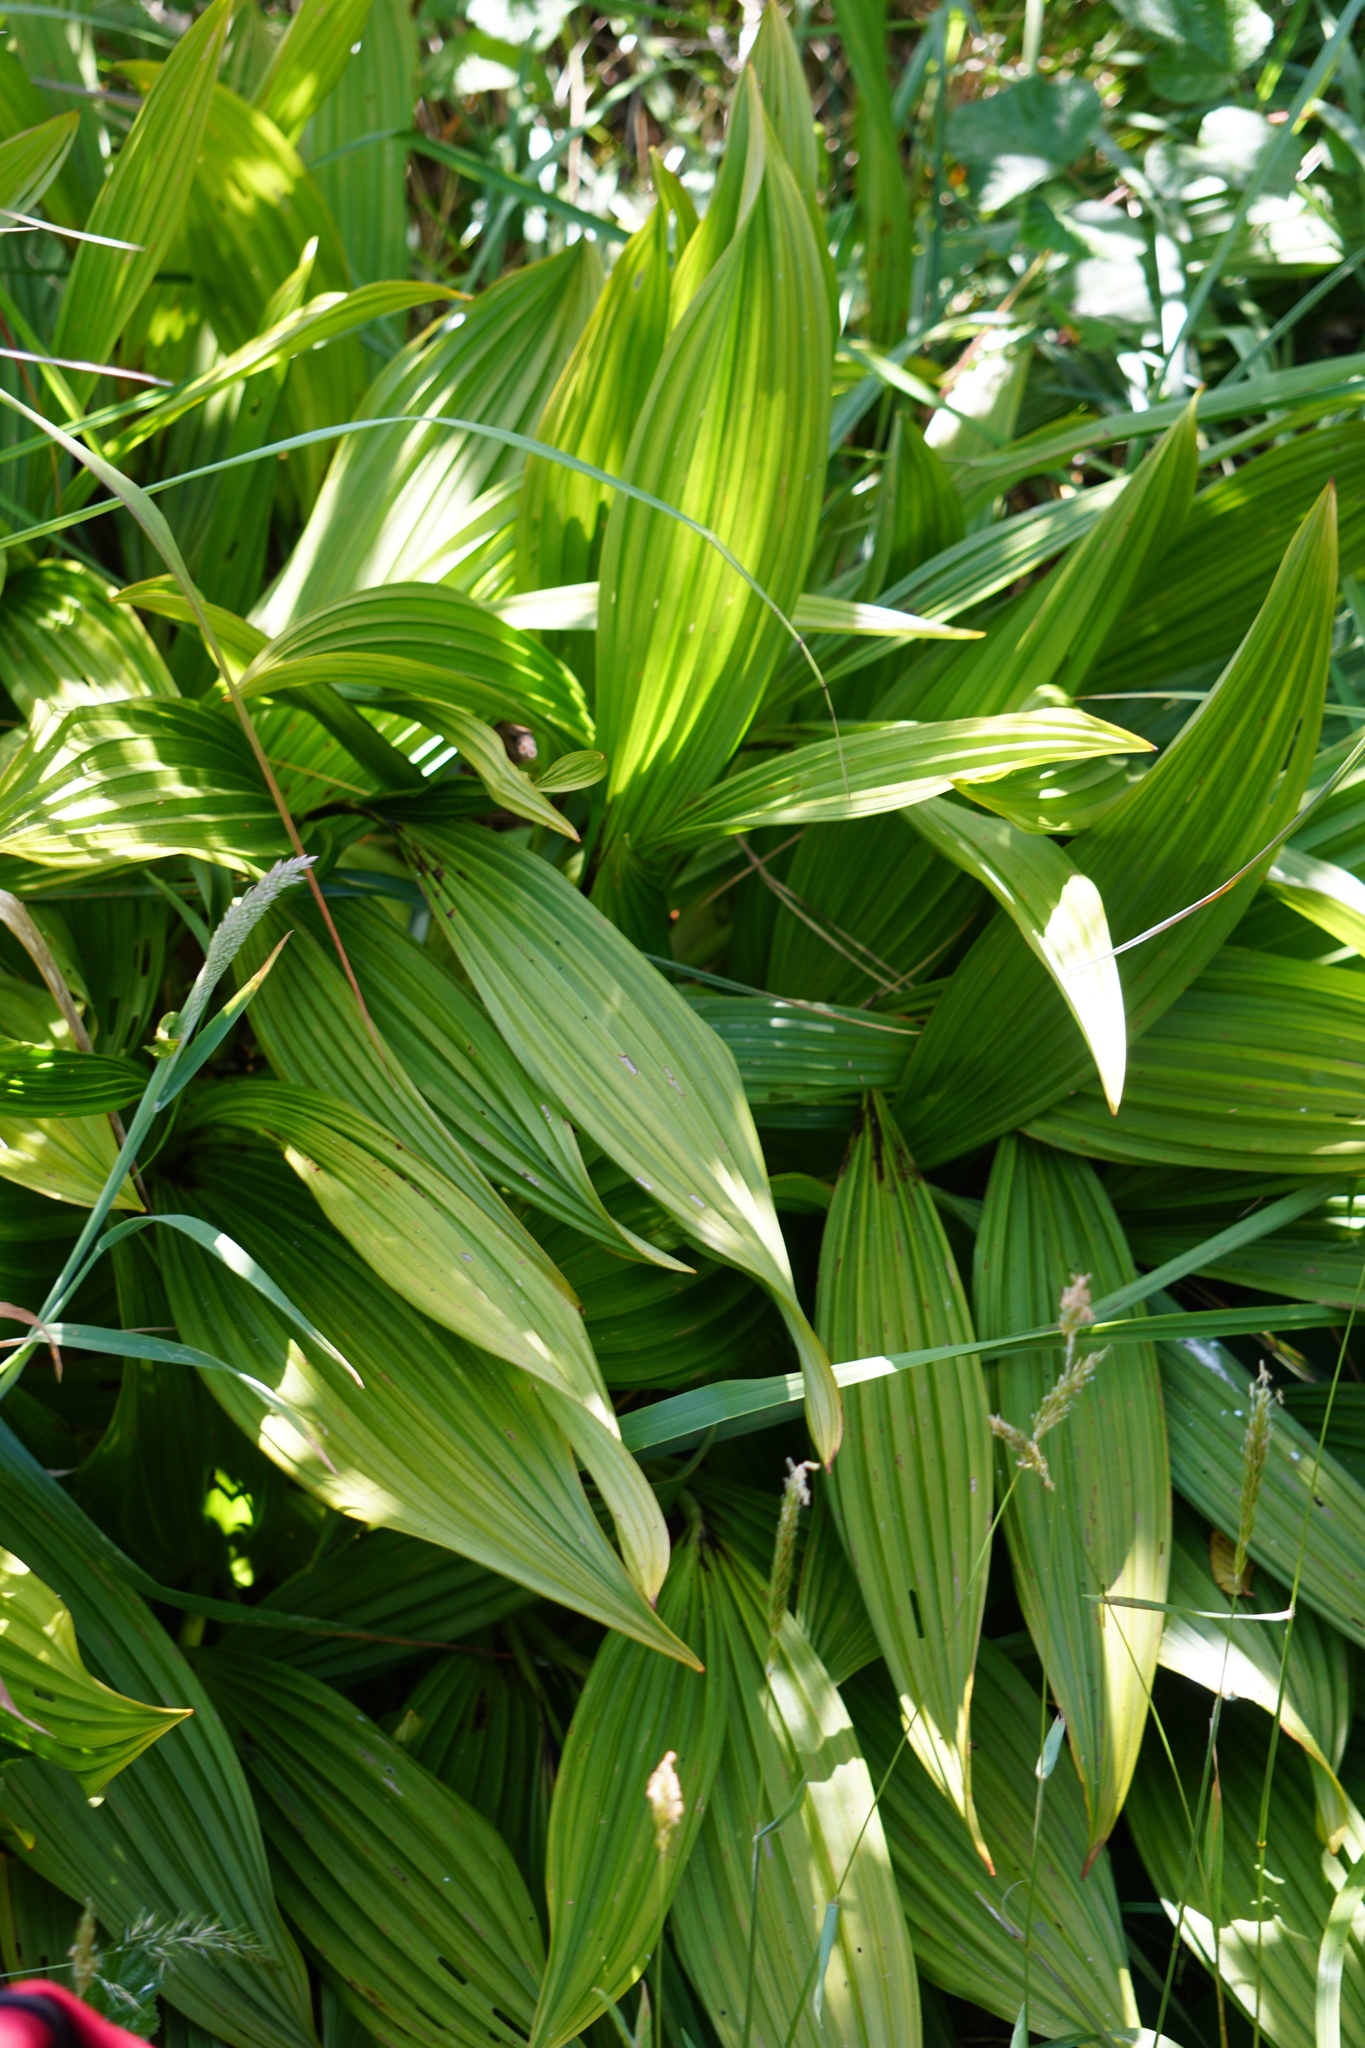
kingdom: Plantae
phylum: Tracheophyta
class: Liliopsida
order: Liliales
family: Melanthiaceae
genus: Veratrum
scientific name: Veratrum fimbriatum
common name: Fringe false hellobore
